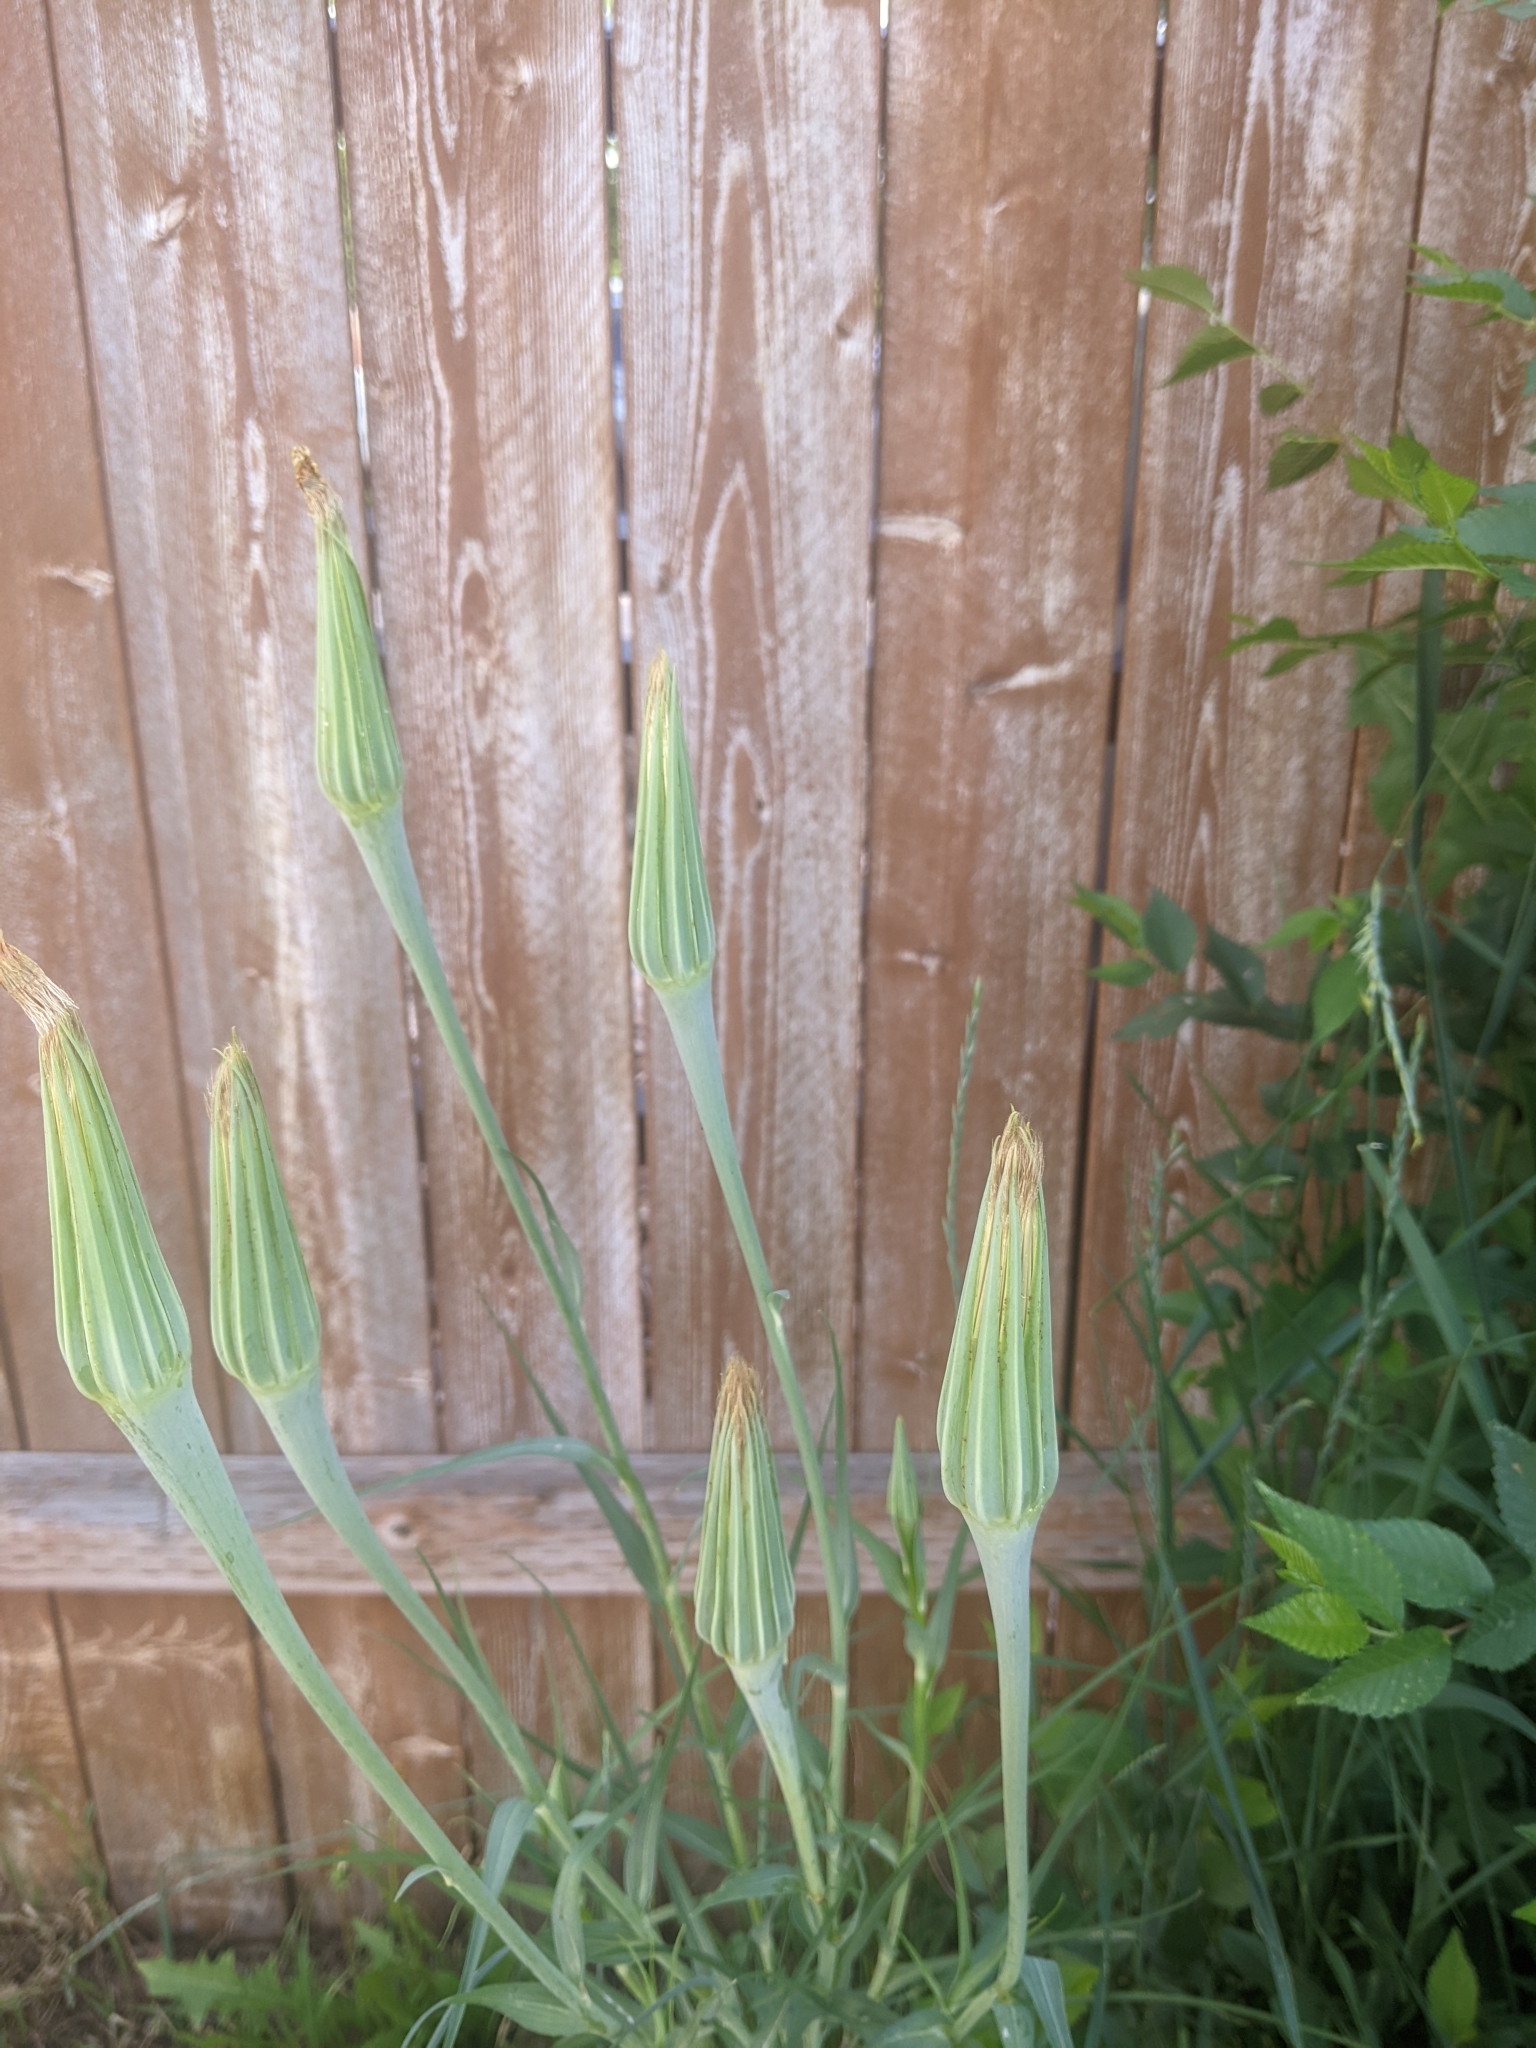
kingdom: Plantae
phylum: Tracheophyta
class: Magnoliopsida
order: Asterales
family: Asteraceae
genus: Tragopogon
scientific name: Tragopogon dubius
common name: Yellow salsify
